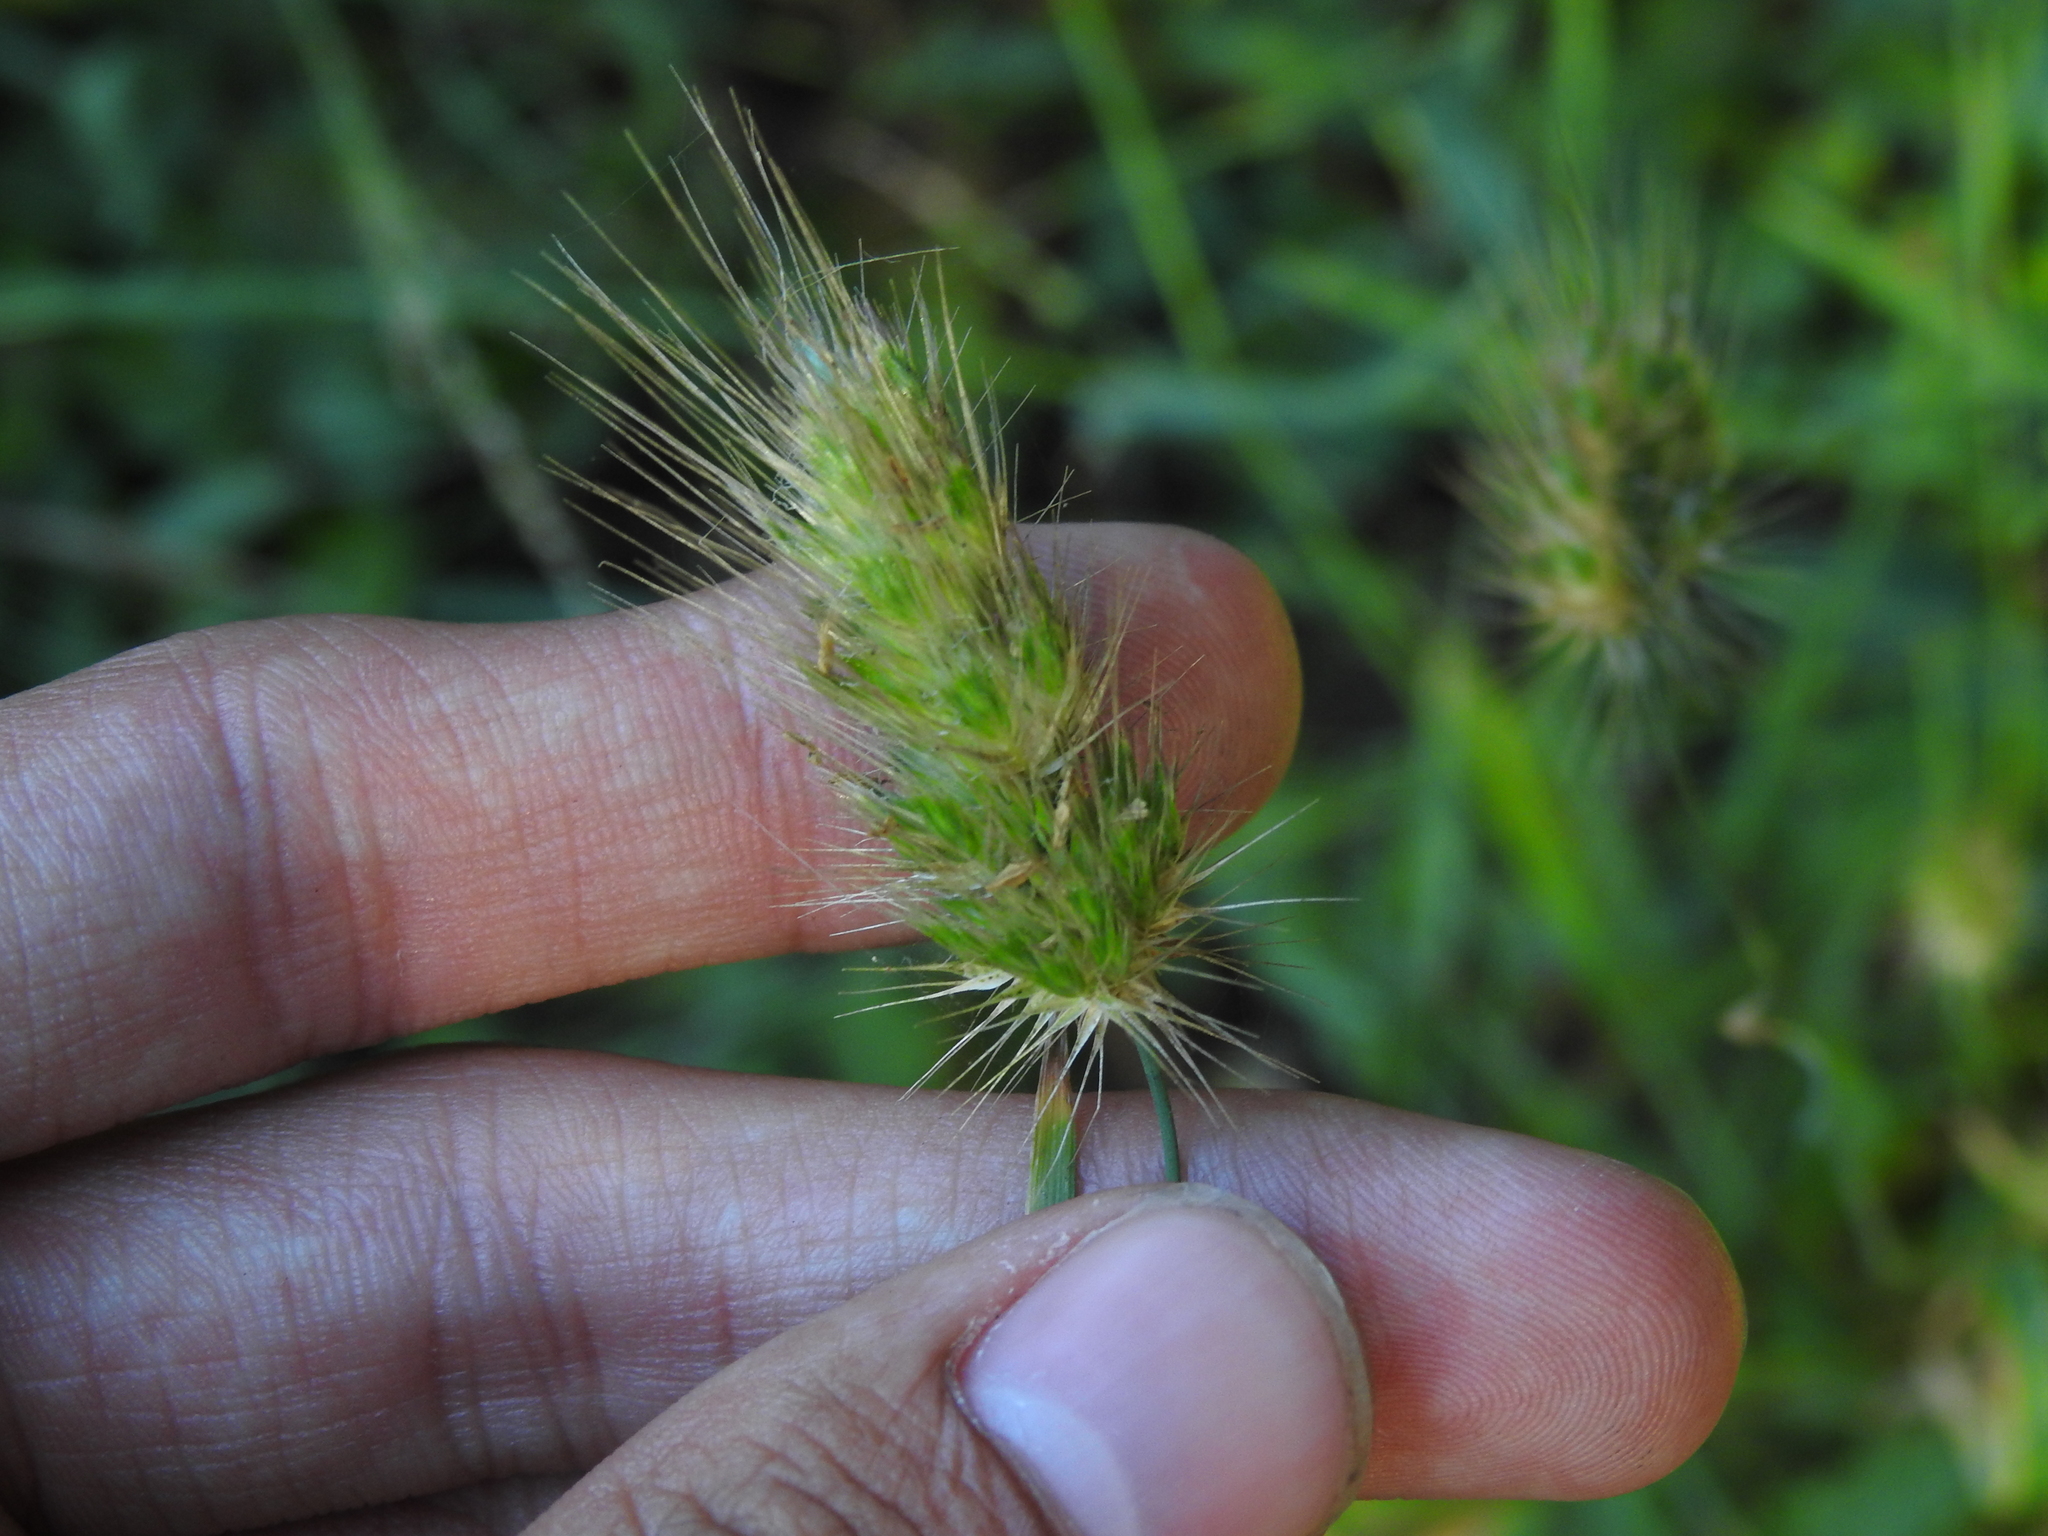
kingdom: Plantae
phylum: Tracheophyta
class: Liliopsida
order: Poales
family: Poaceae
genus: Cynosurus
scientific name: Cynosurus echinatus
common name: Rough dog's-tail
